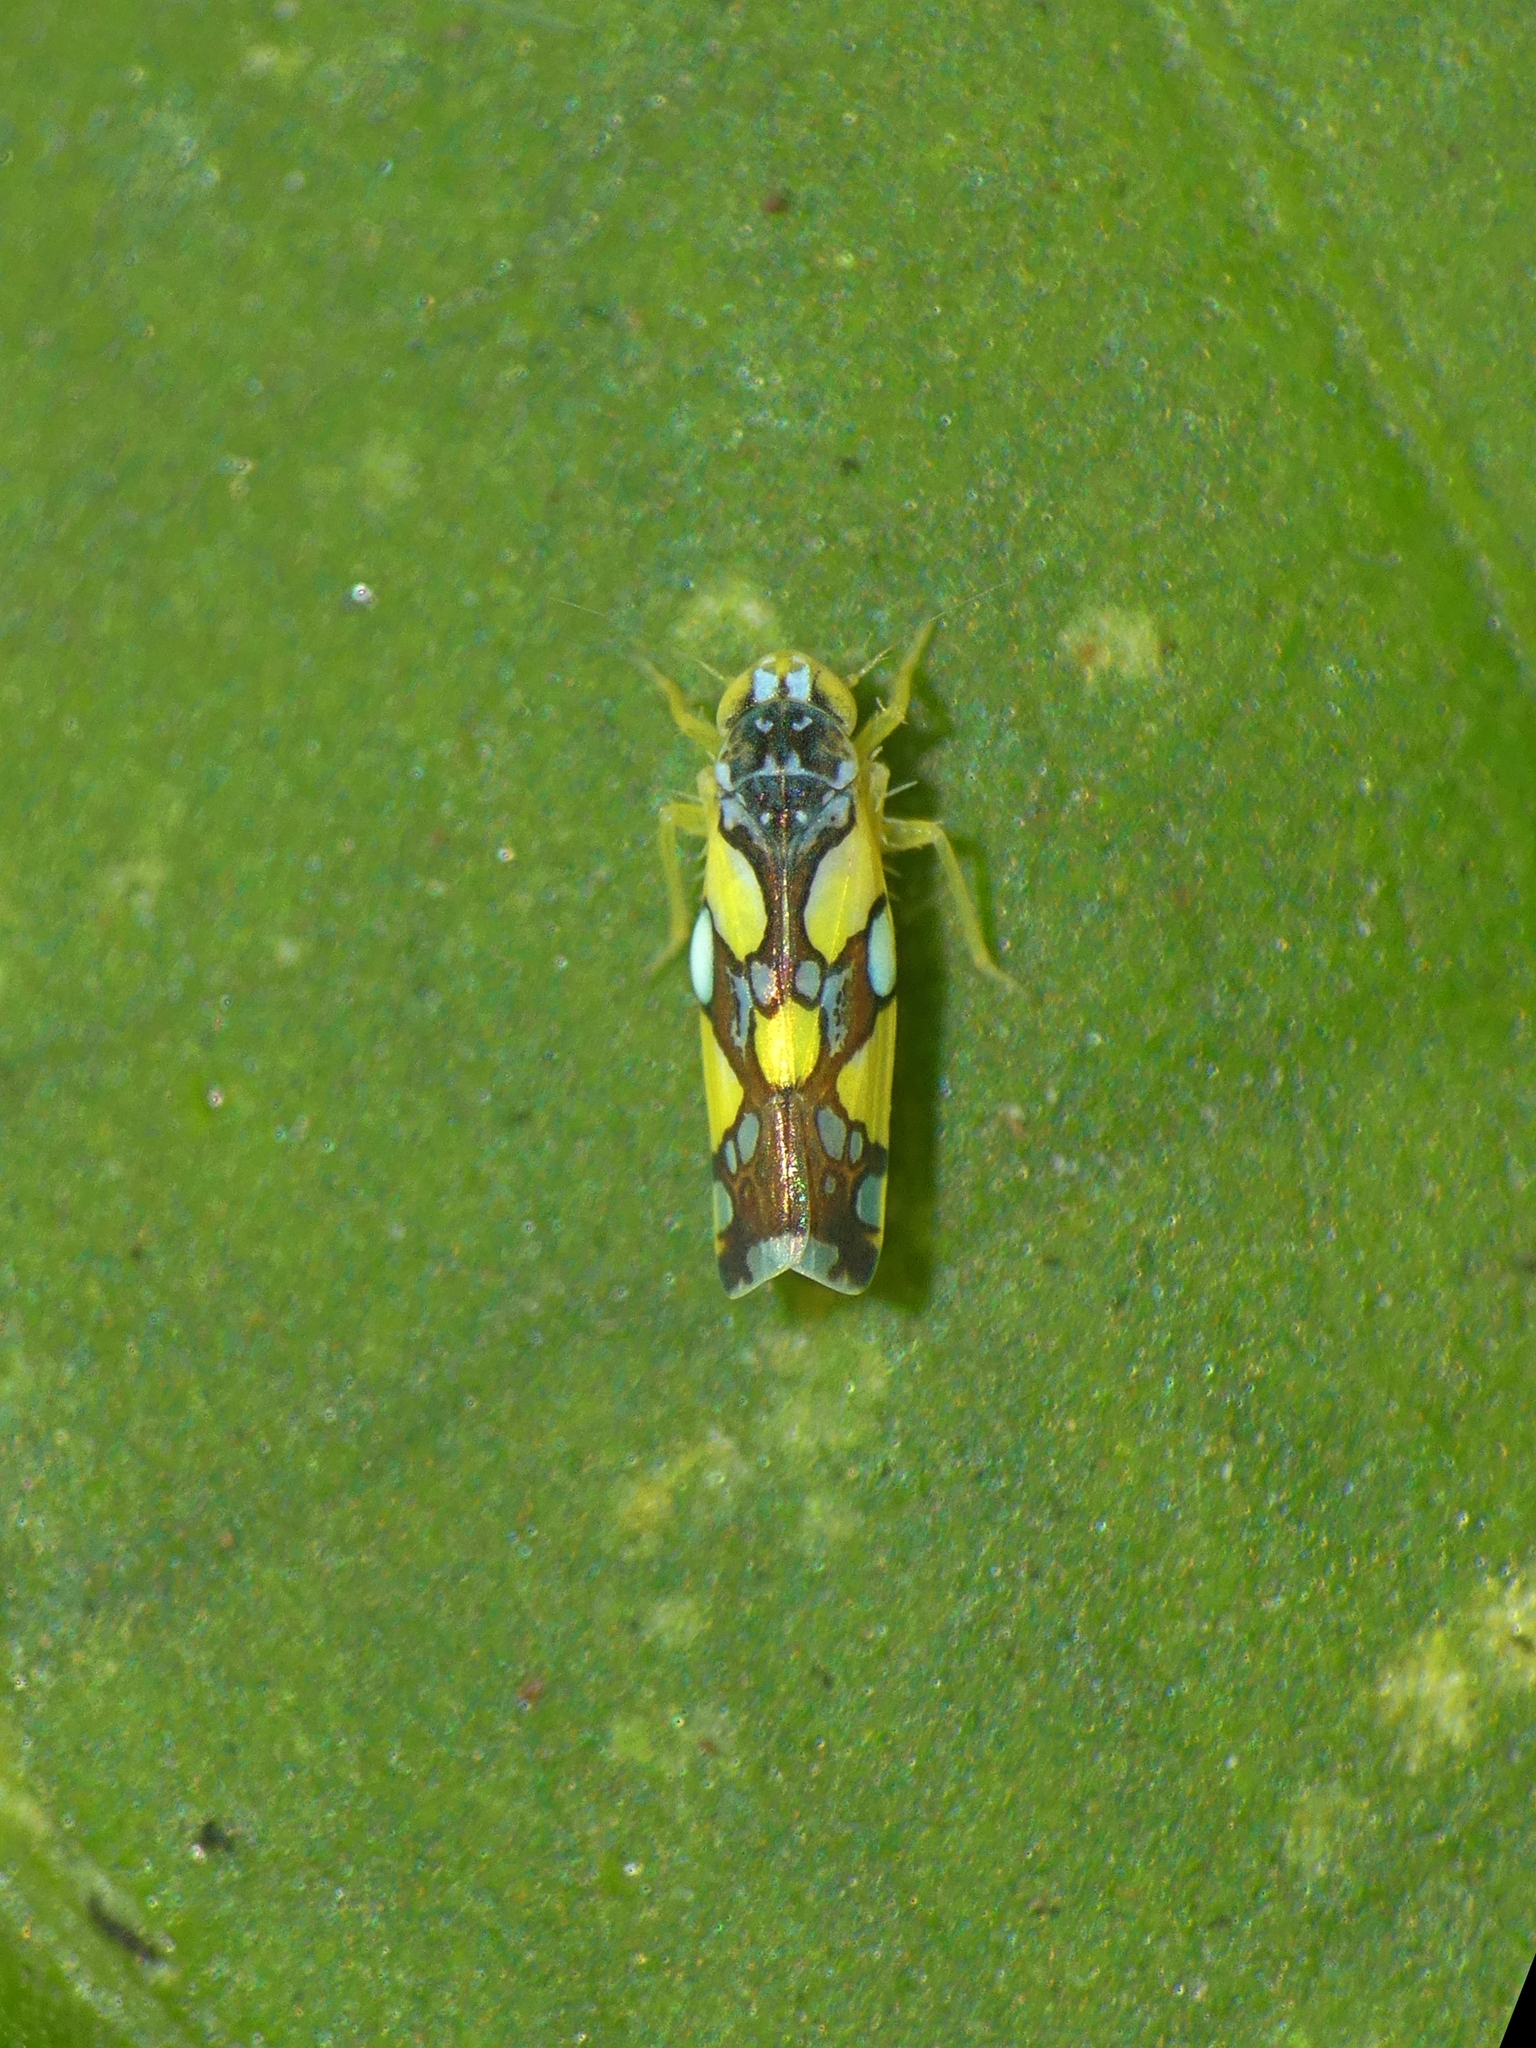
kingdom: Animalia
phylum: Arthropoda
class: Insecta
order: Hemiptera
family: Cicadellidae
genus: Protalebrella
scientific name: Protalebrella brasiliensis
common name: Brasilian leafhopper
